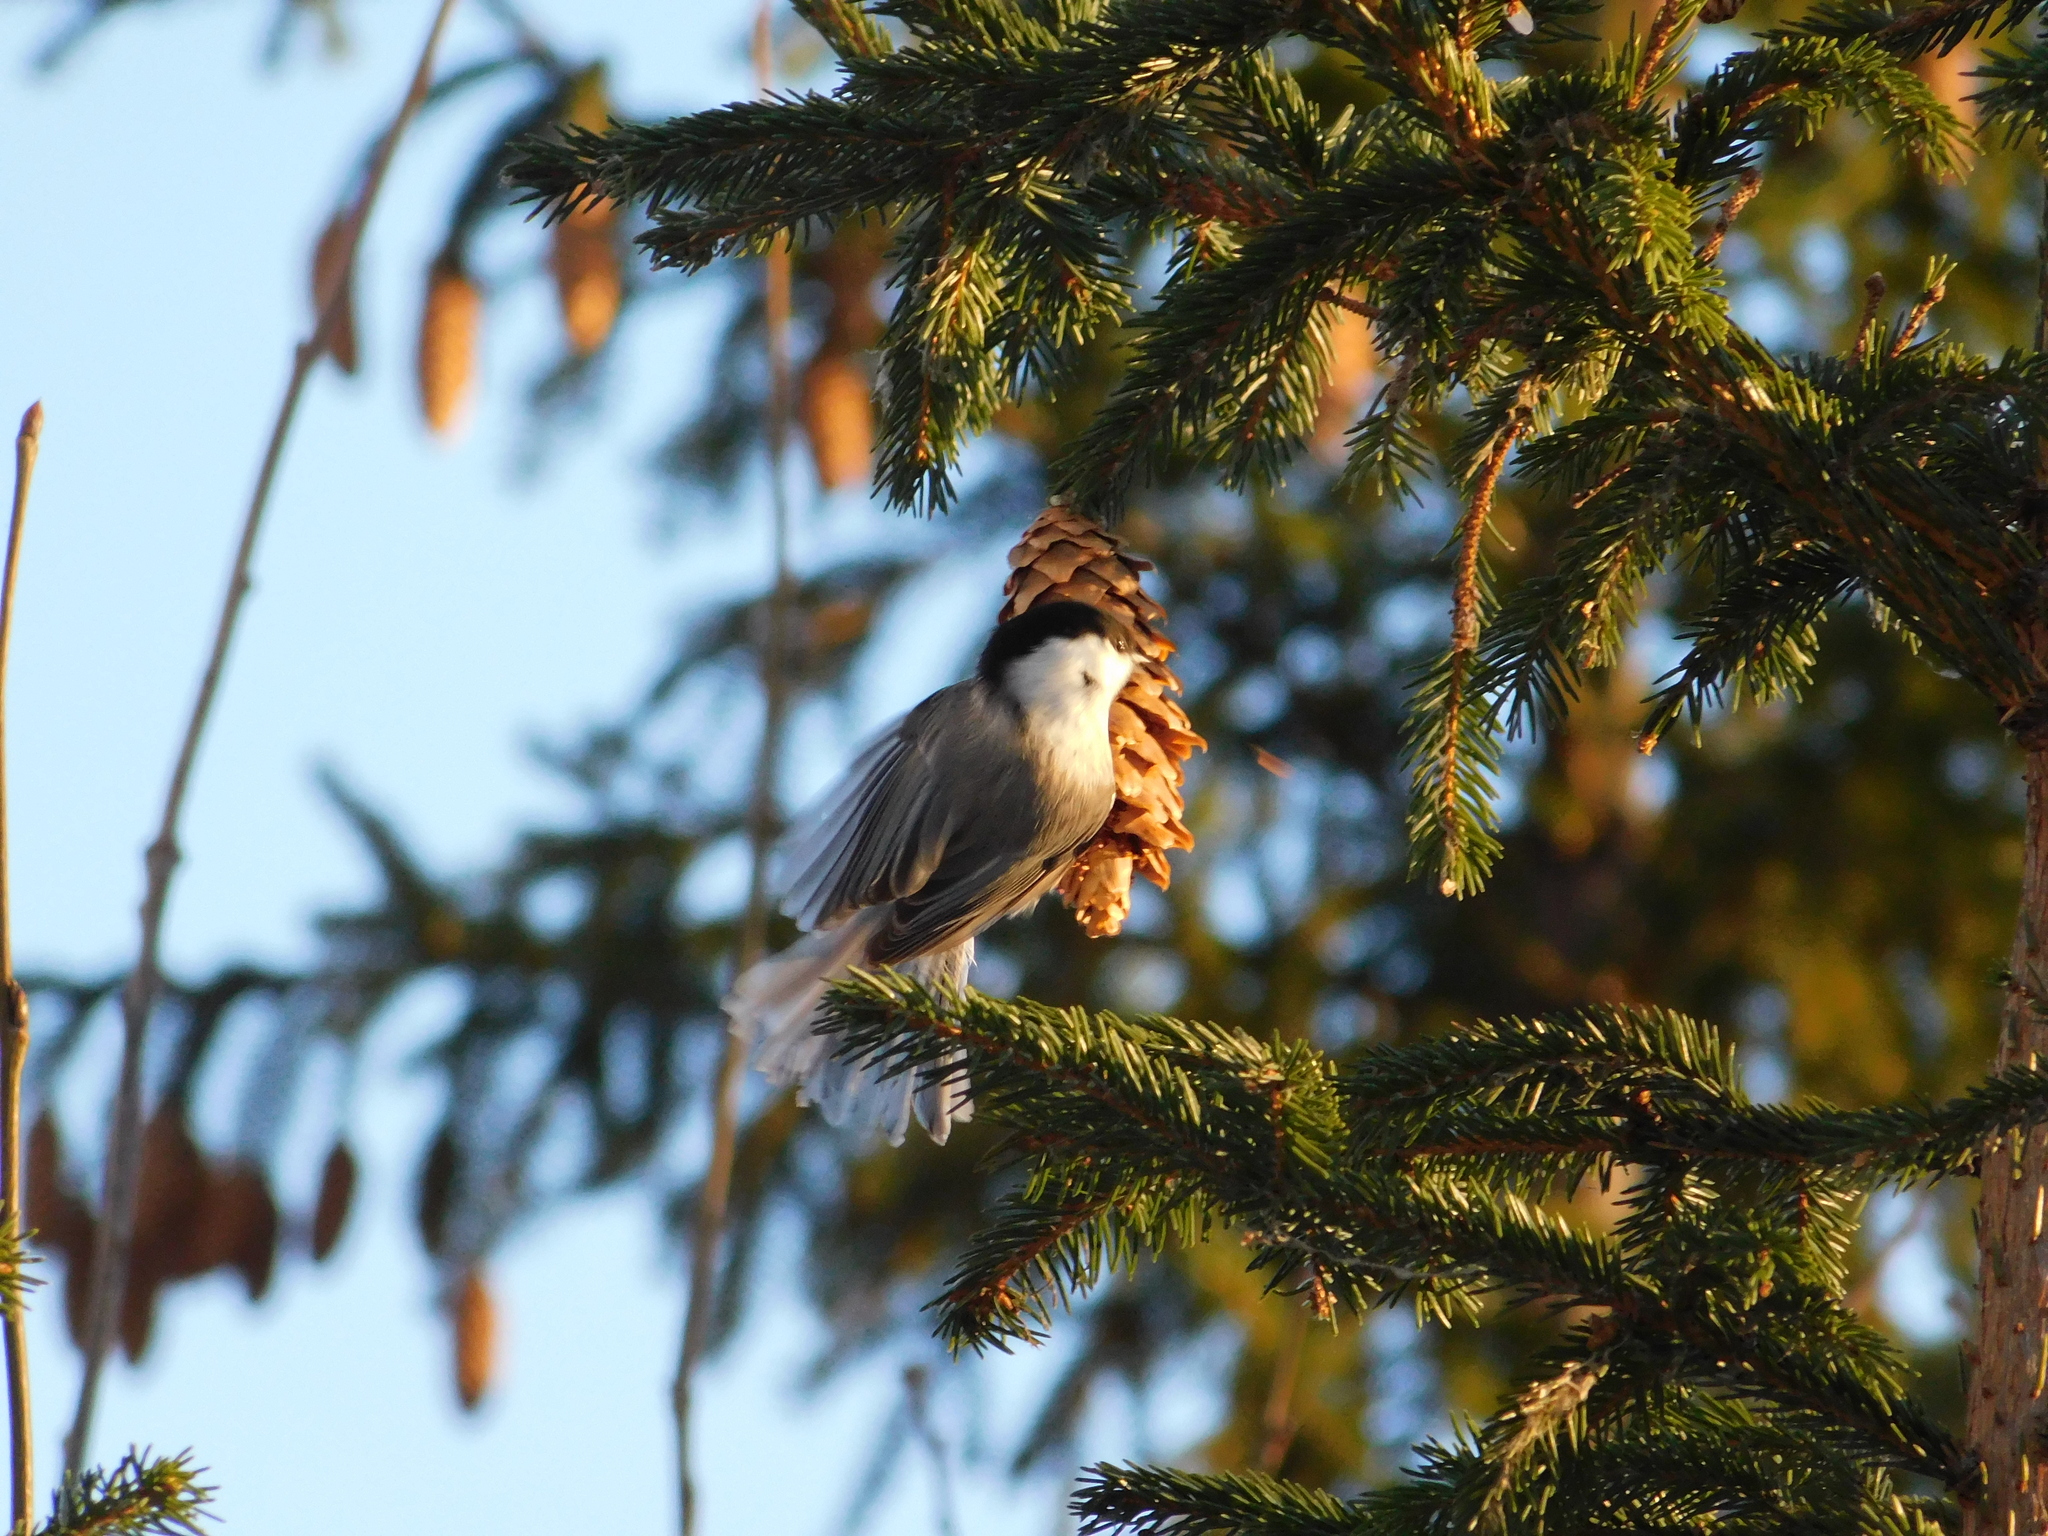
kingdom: Animalia
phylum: Chordata
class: Aves
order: Passeriformes
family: Paridae
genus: Poecile
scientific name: Poecile montanus
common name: Willow tit
